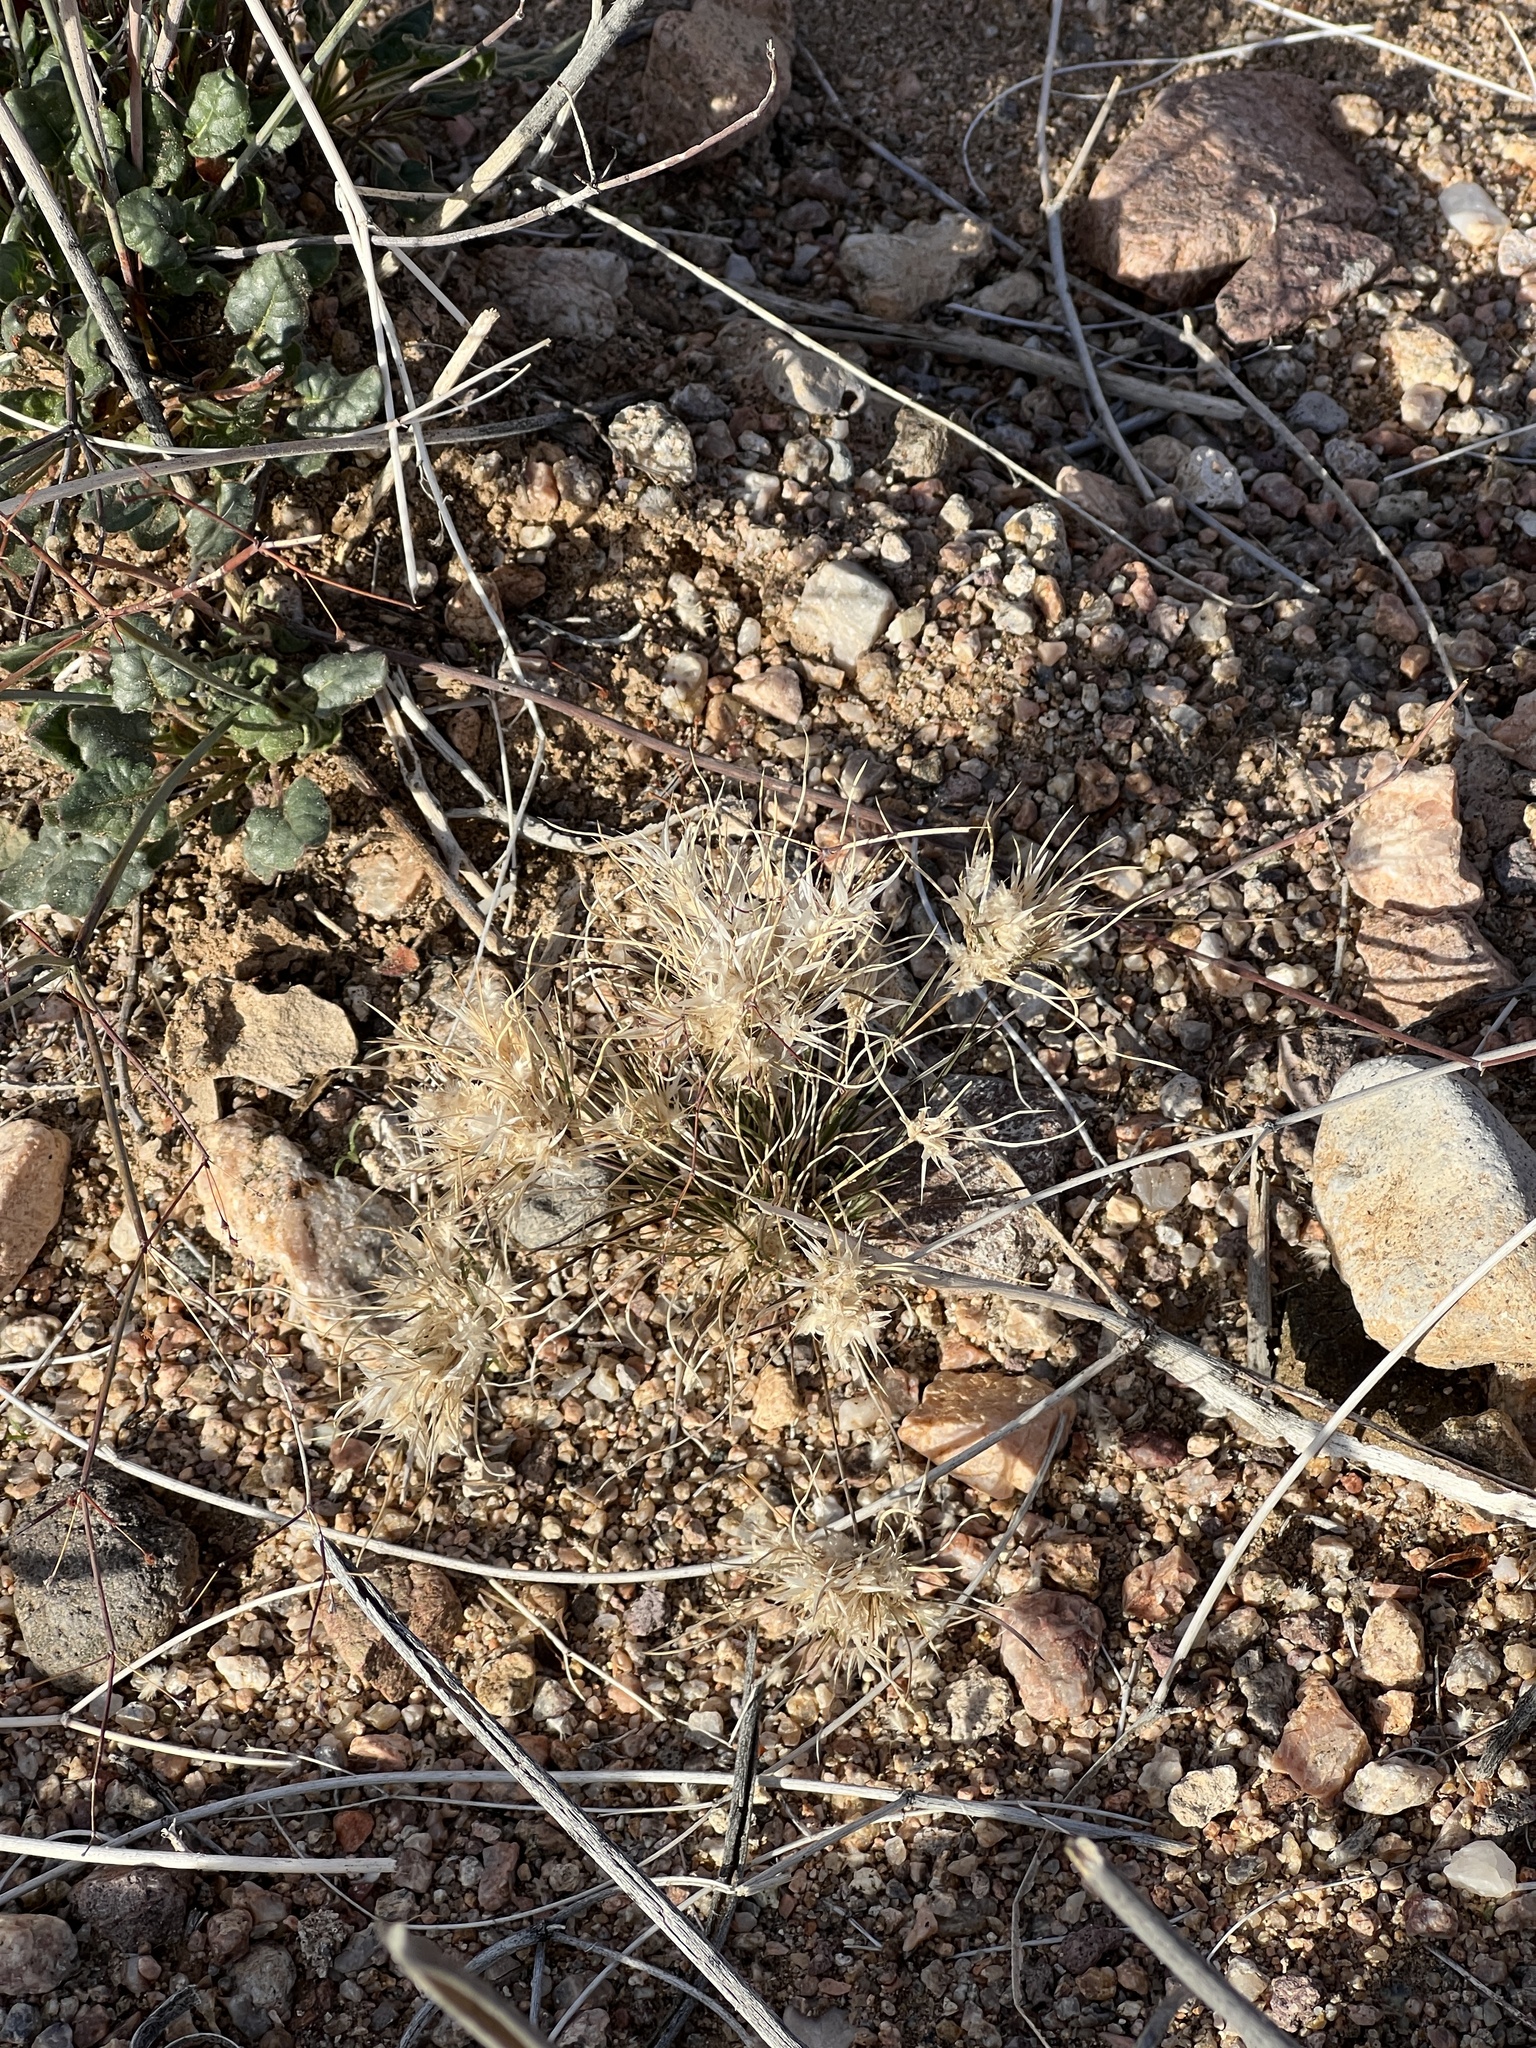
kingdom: Plantae
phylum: Tracheophyta
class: Liliopsida
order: Poales
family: Poaceae
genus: Dasyochloa
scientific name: Dasyochloa pulchella
